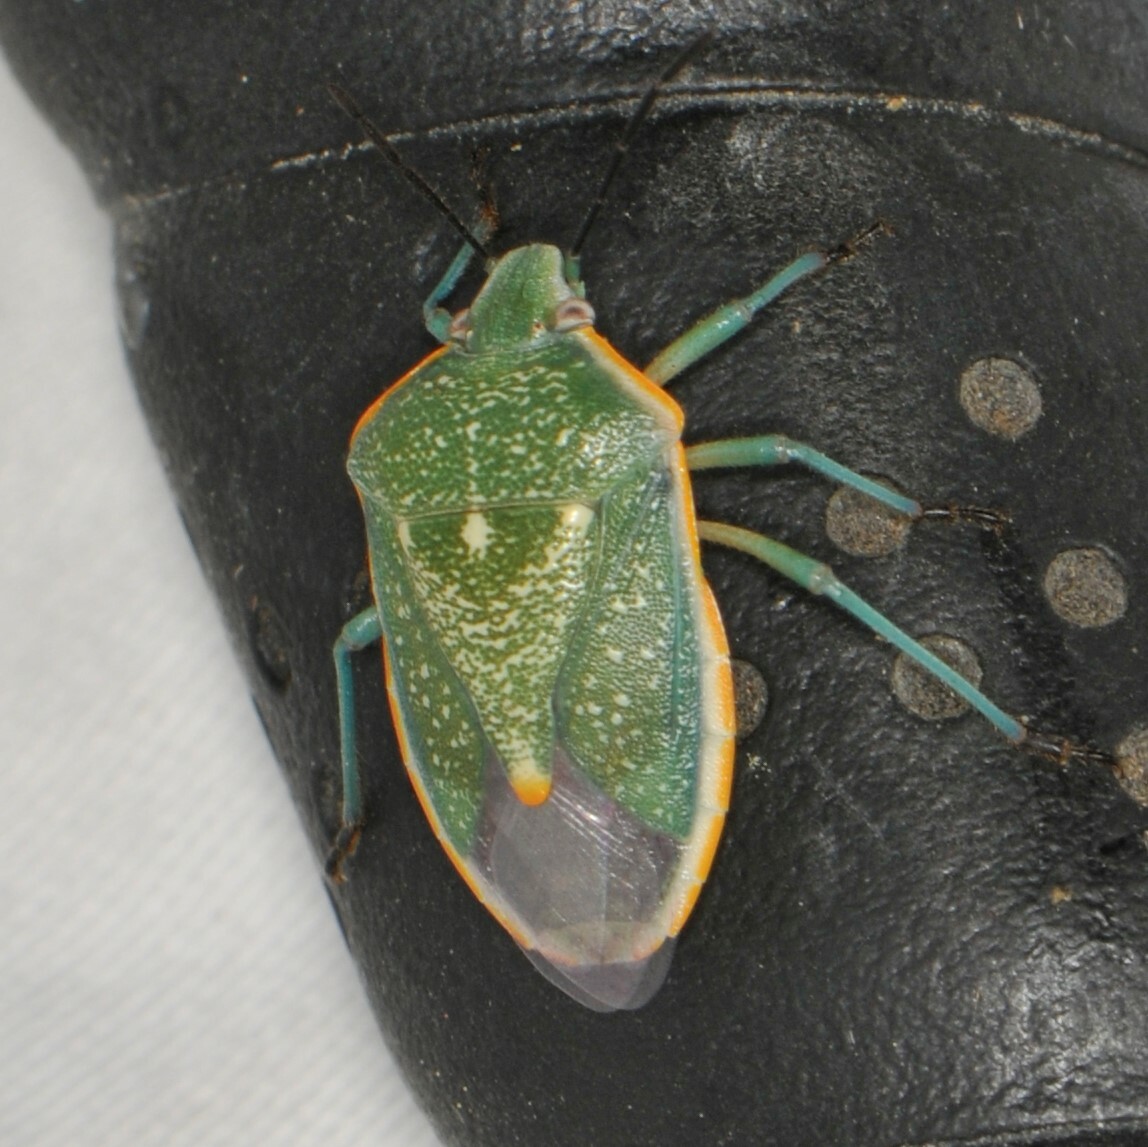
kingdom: Animalia
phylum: Arthropoda
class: Insecta
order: Hemiptera
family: Pentatomidae
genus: Chlorochroa
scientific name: Chlorochroa sayi
